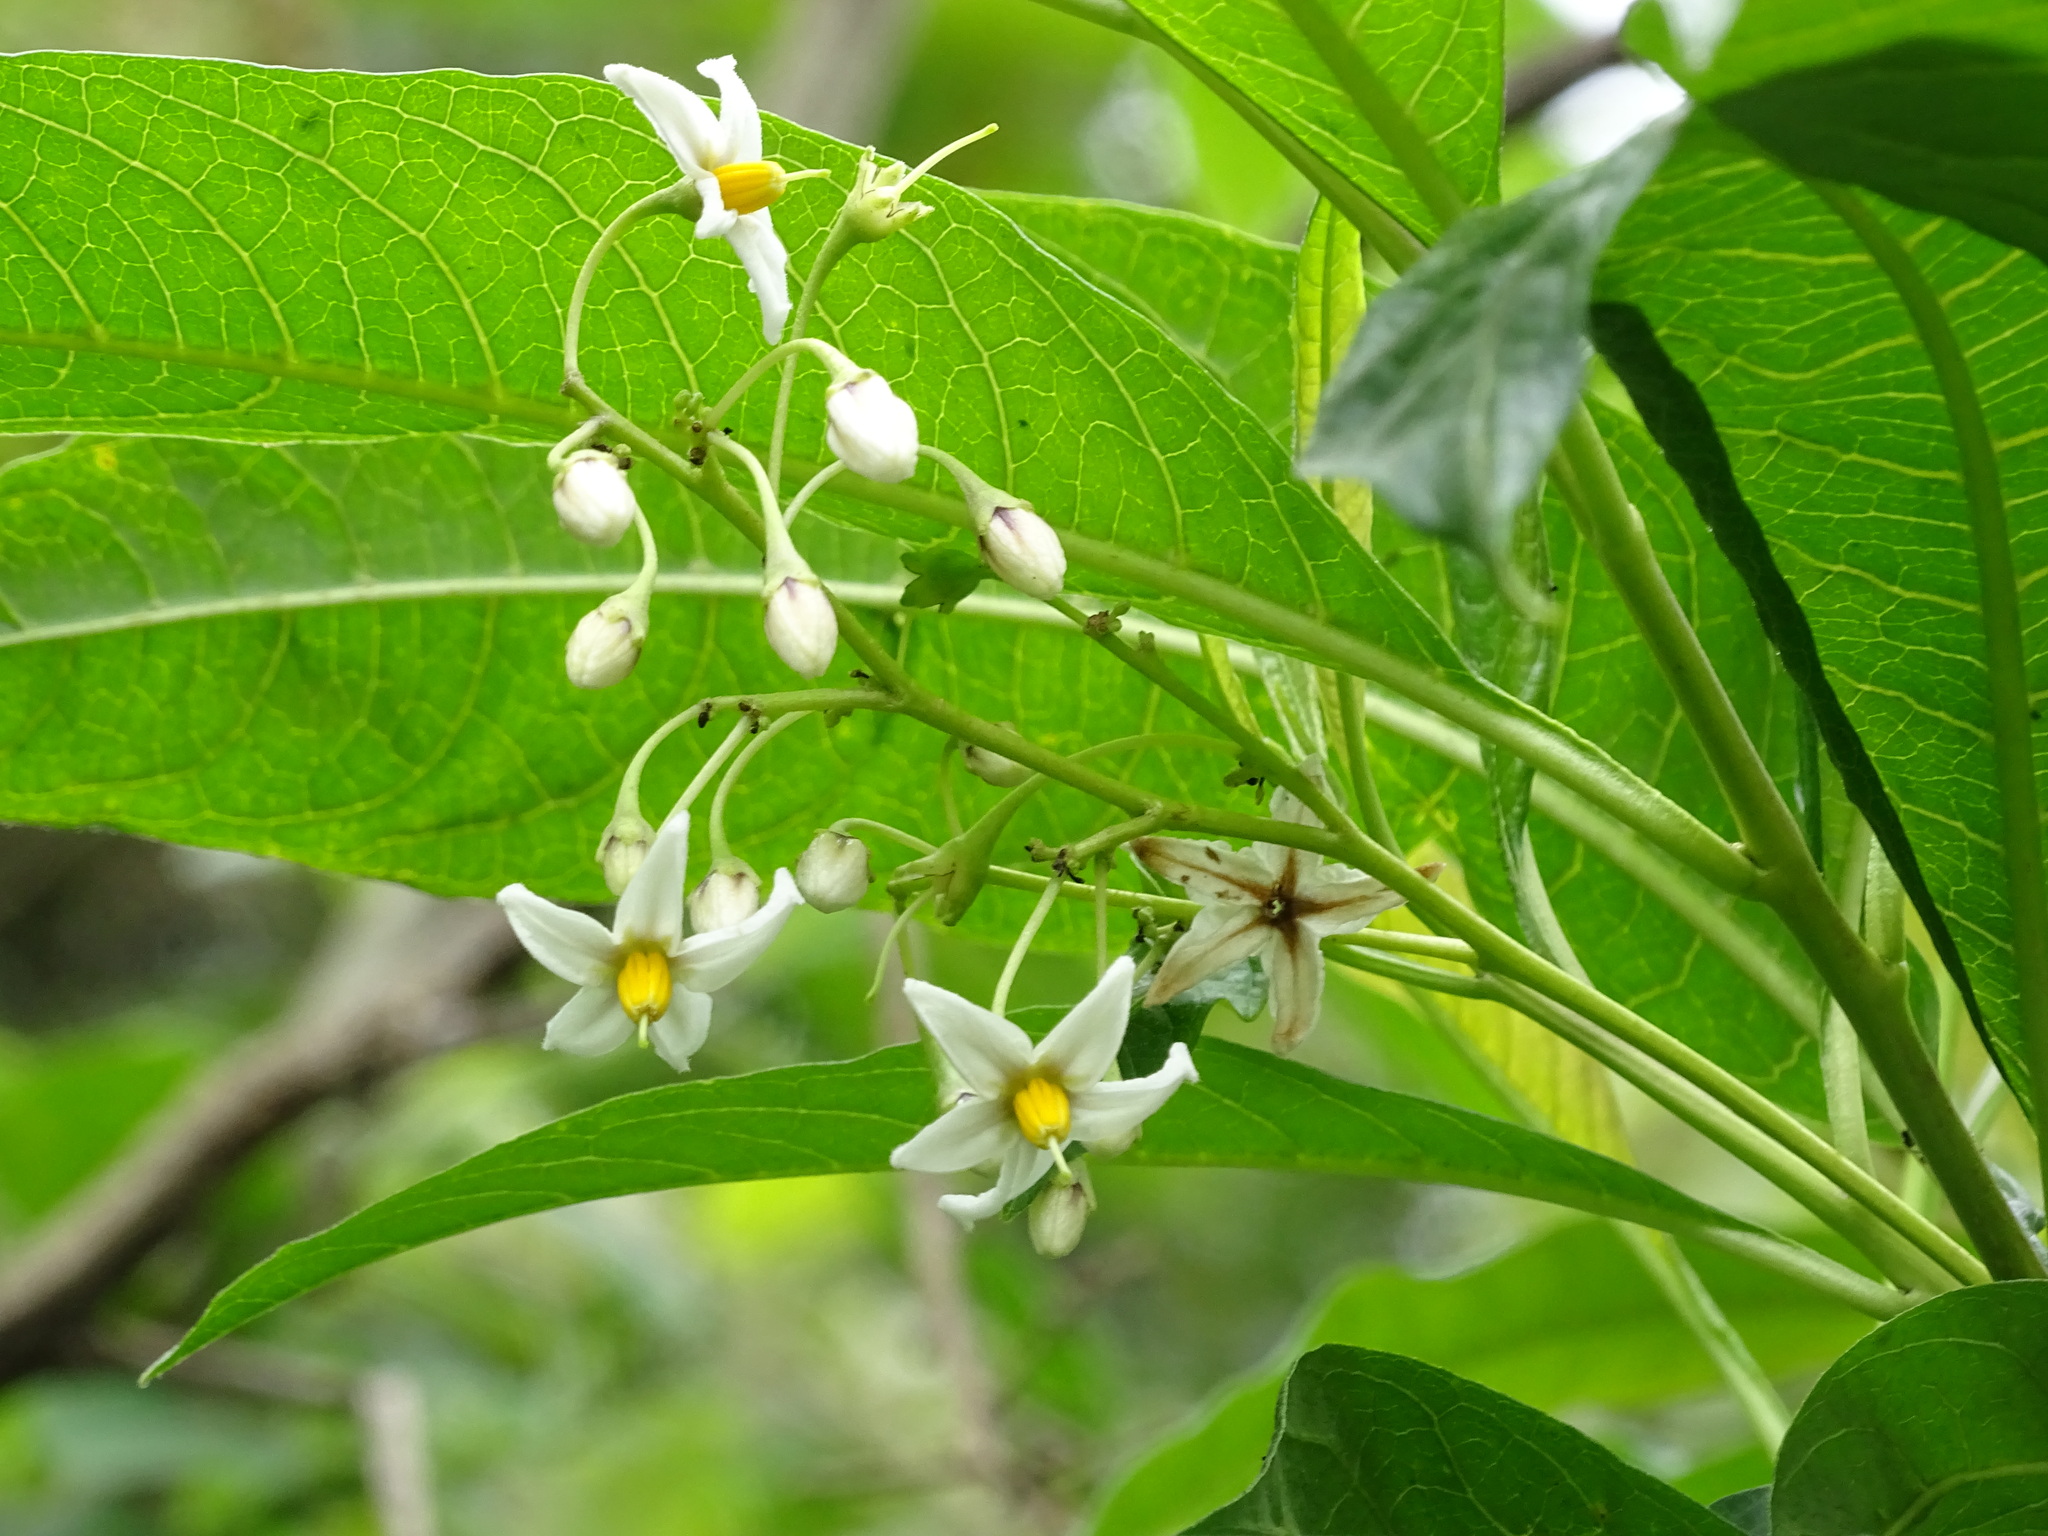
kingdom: Plantae
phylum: Tracheophyta
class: Magnoliopsida
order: Solanales
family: Solanaceae
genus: Solanum
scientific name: Solanum aligerum
